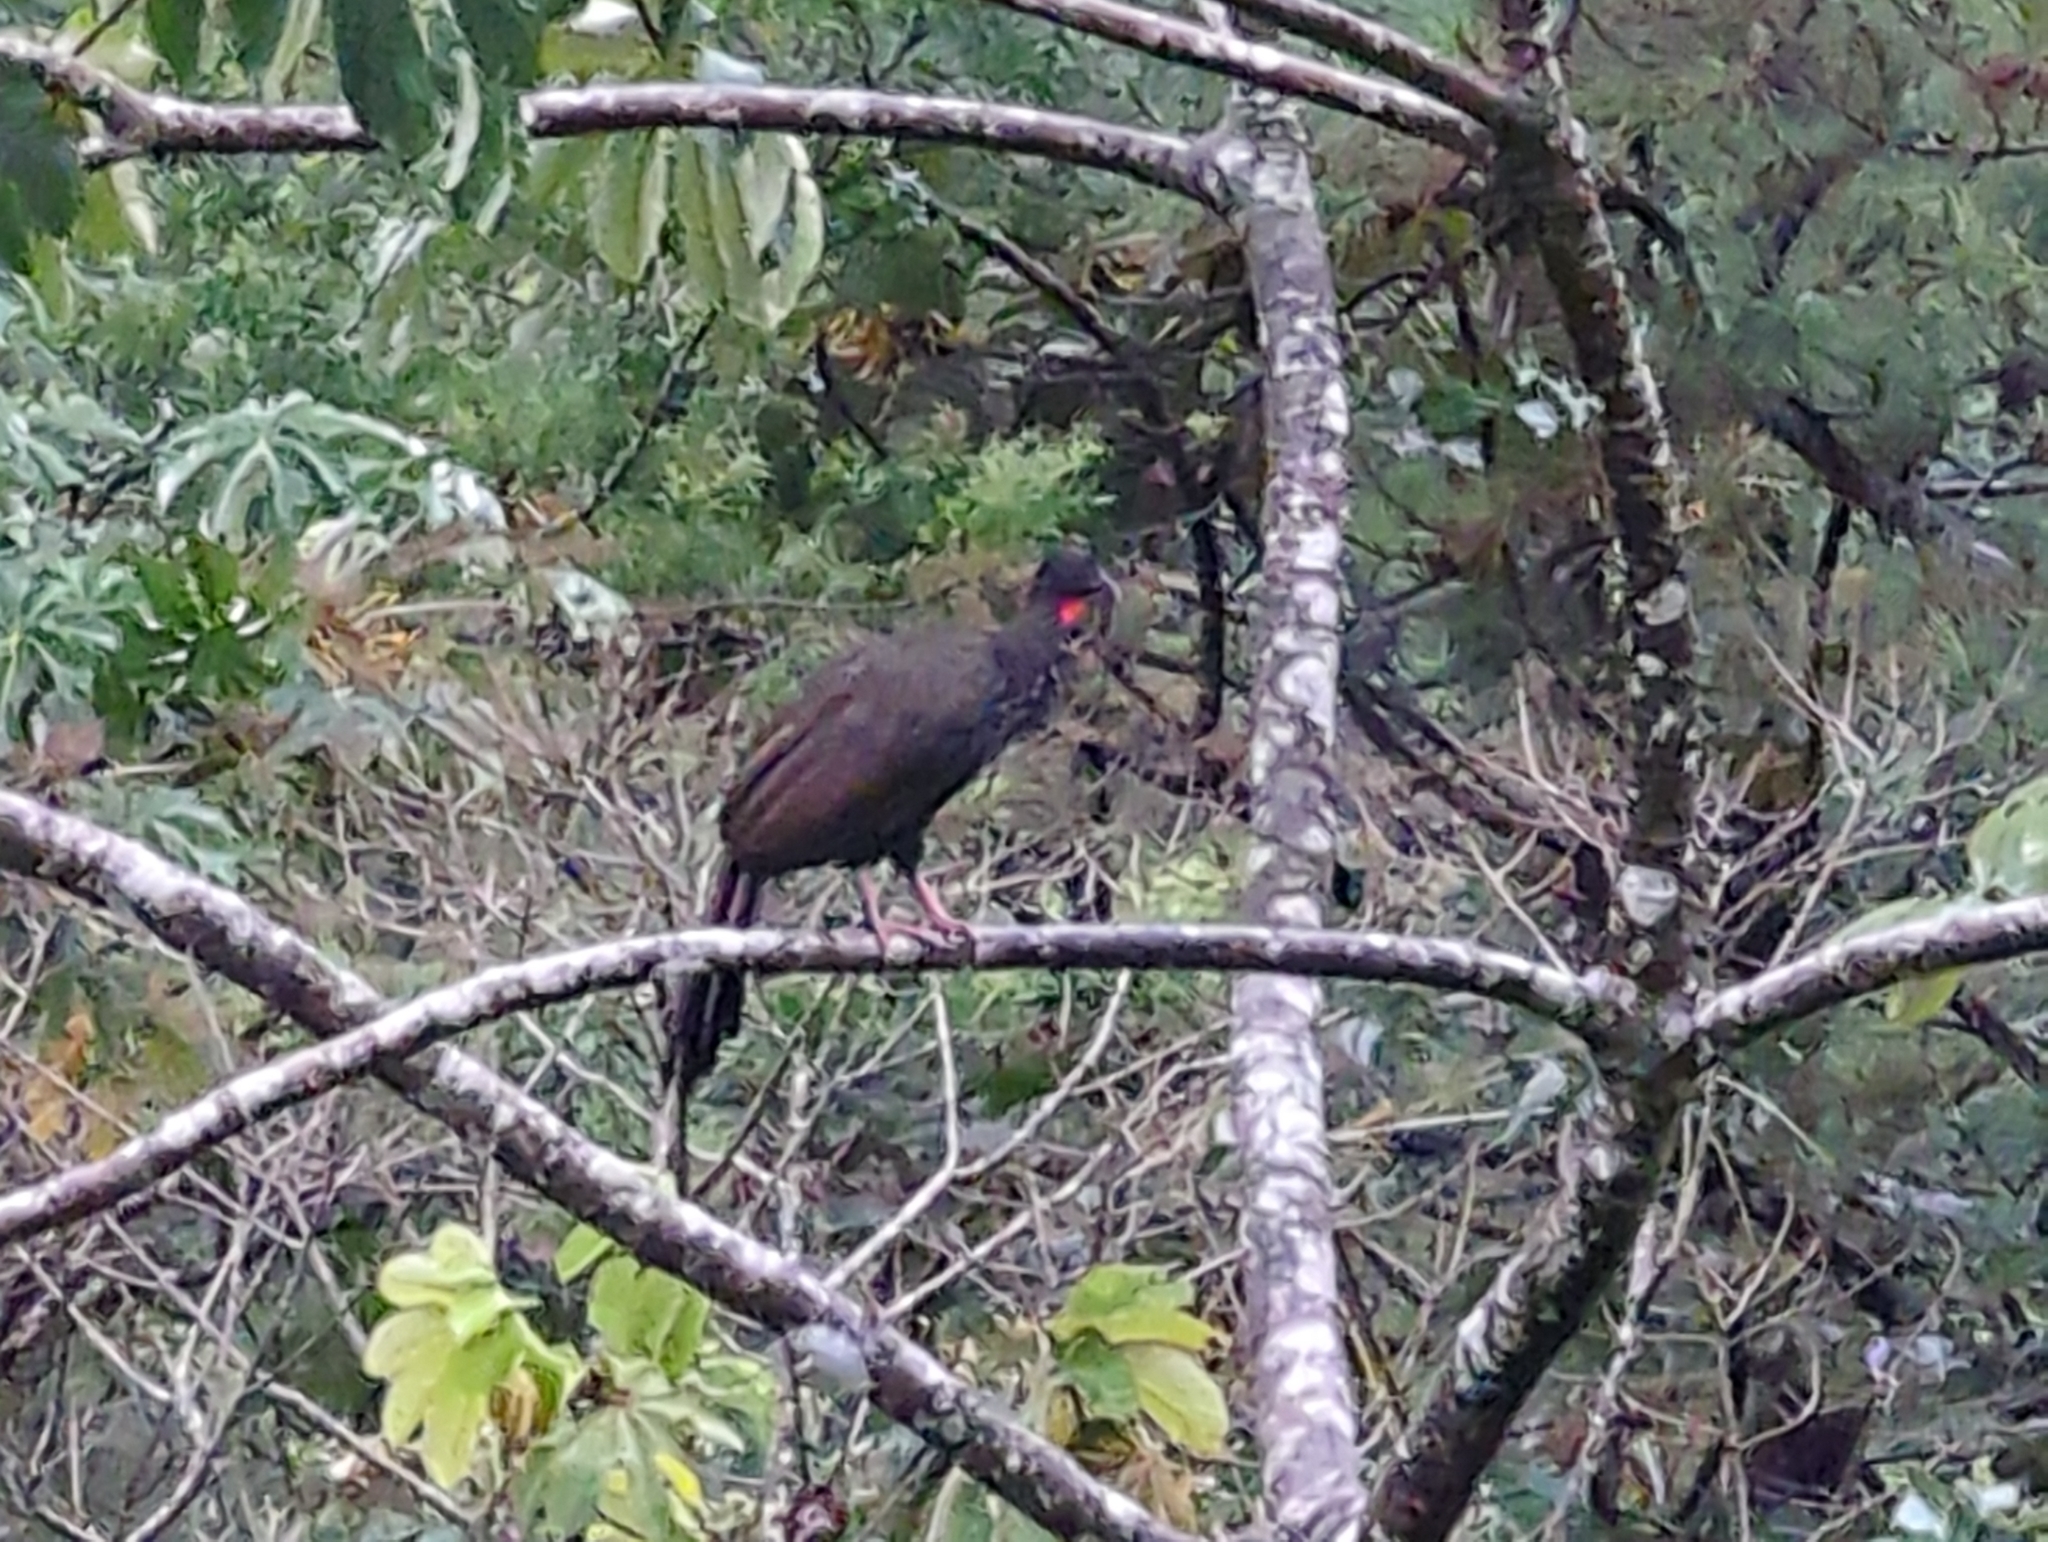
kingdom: Animalia
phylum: Chordata
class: Aves
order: Galliformes
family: Cracidae
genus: Penelope
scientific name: Penelope purpurascens
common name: Crested guan
